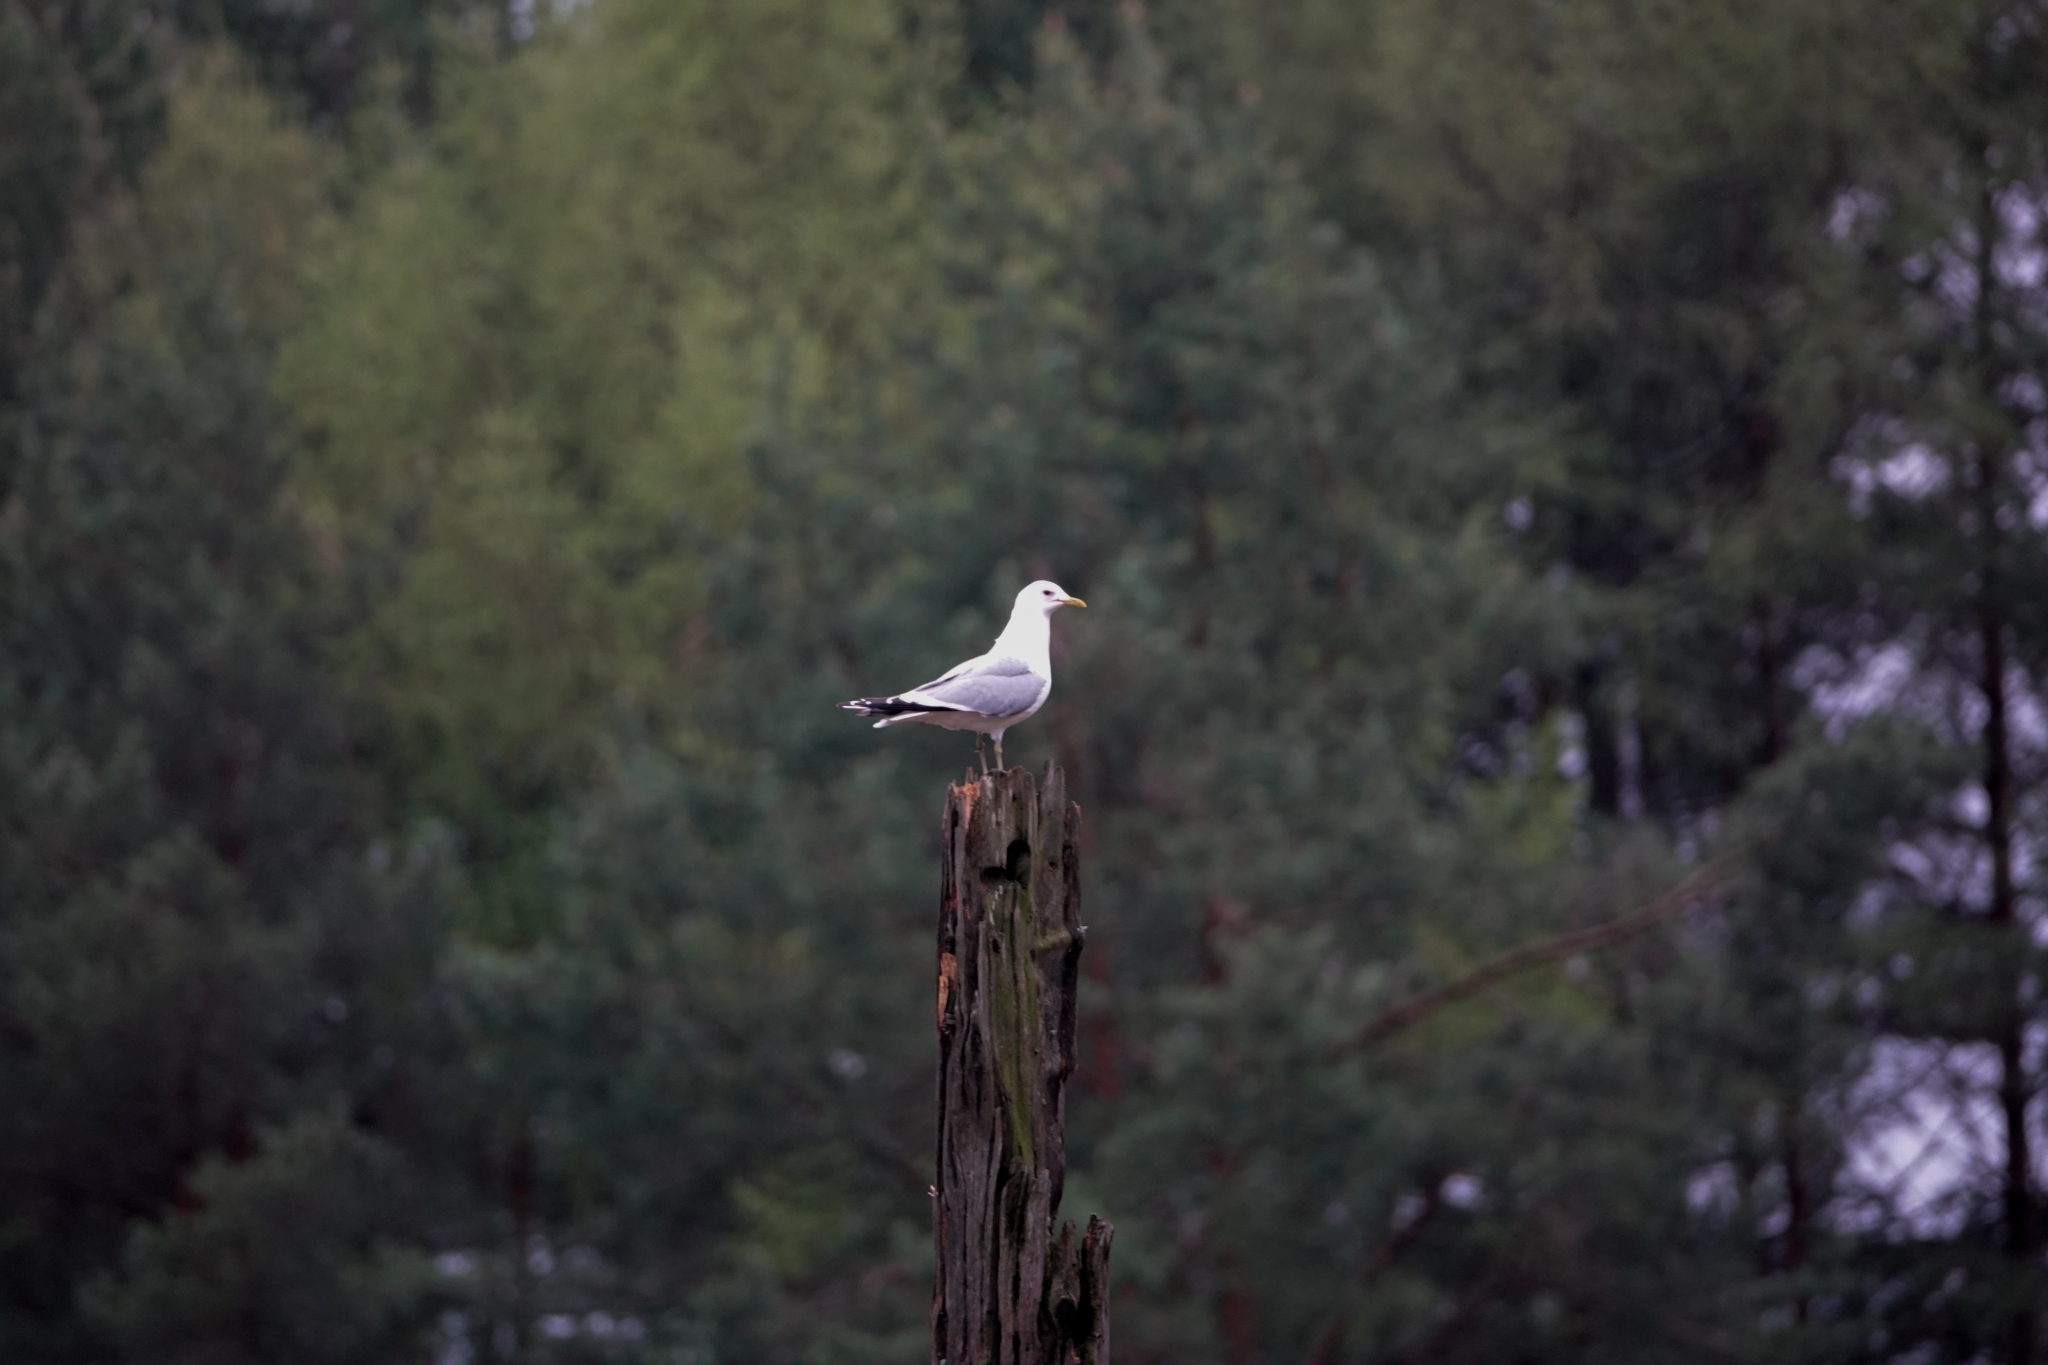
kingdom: Animalia
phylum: Chordata
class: Aves
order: Charadriiformes
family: Laridae
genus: Larus
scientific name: Larus canus
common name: Mew gull
